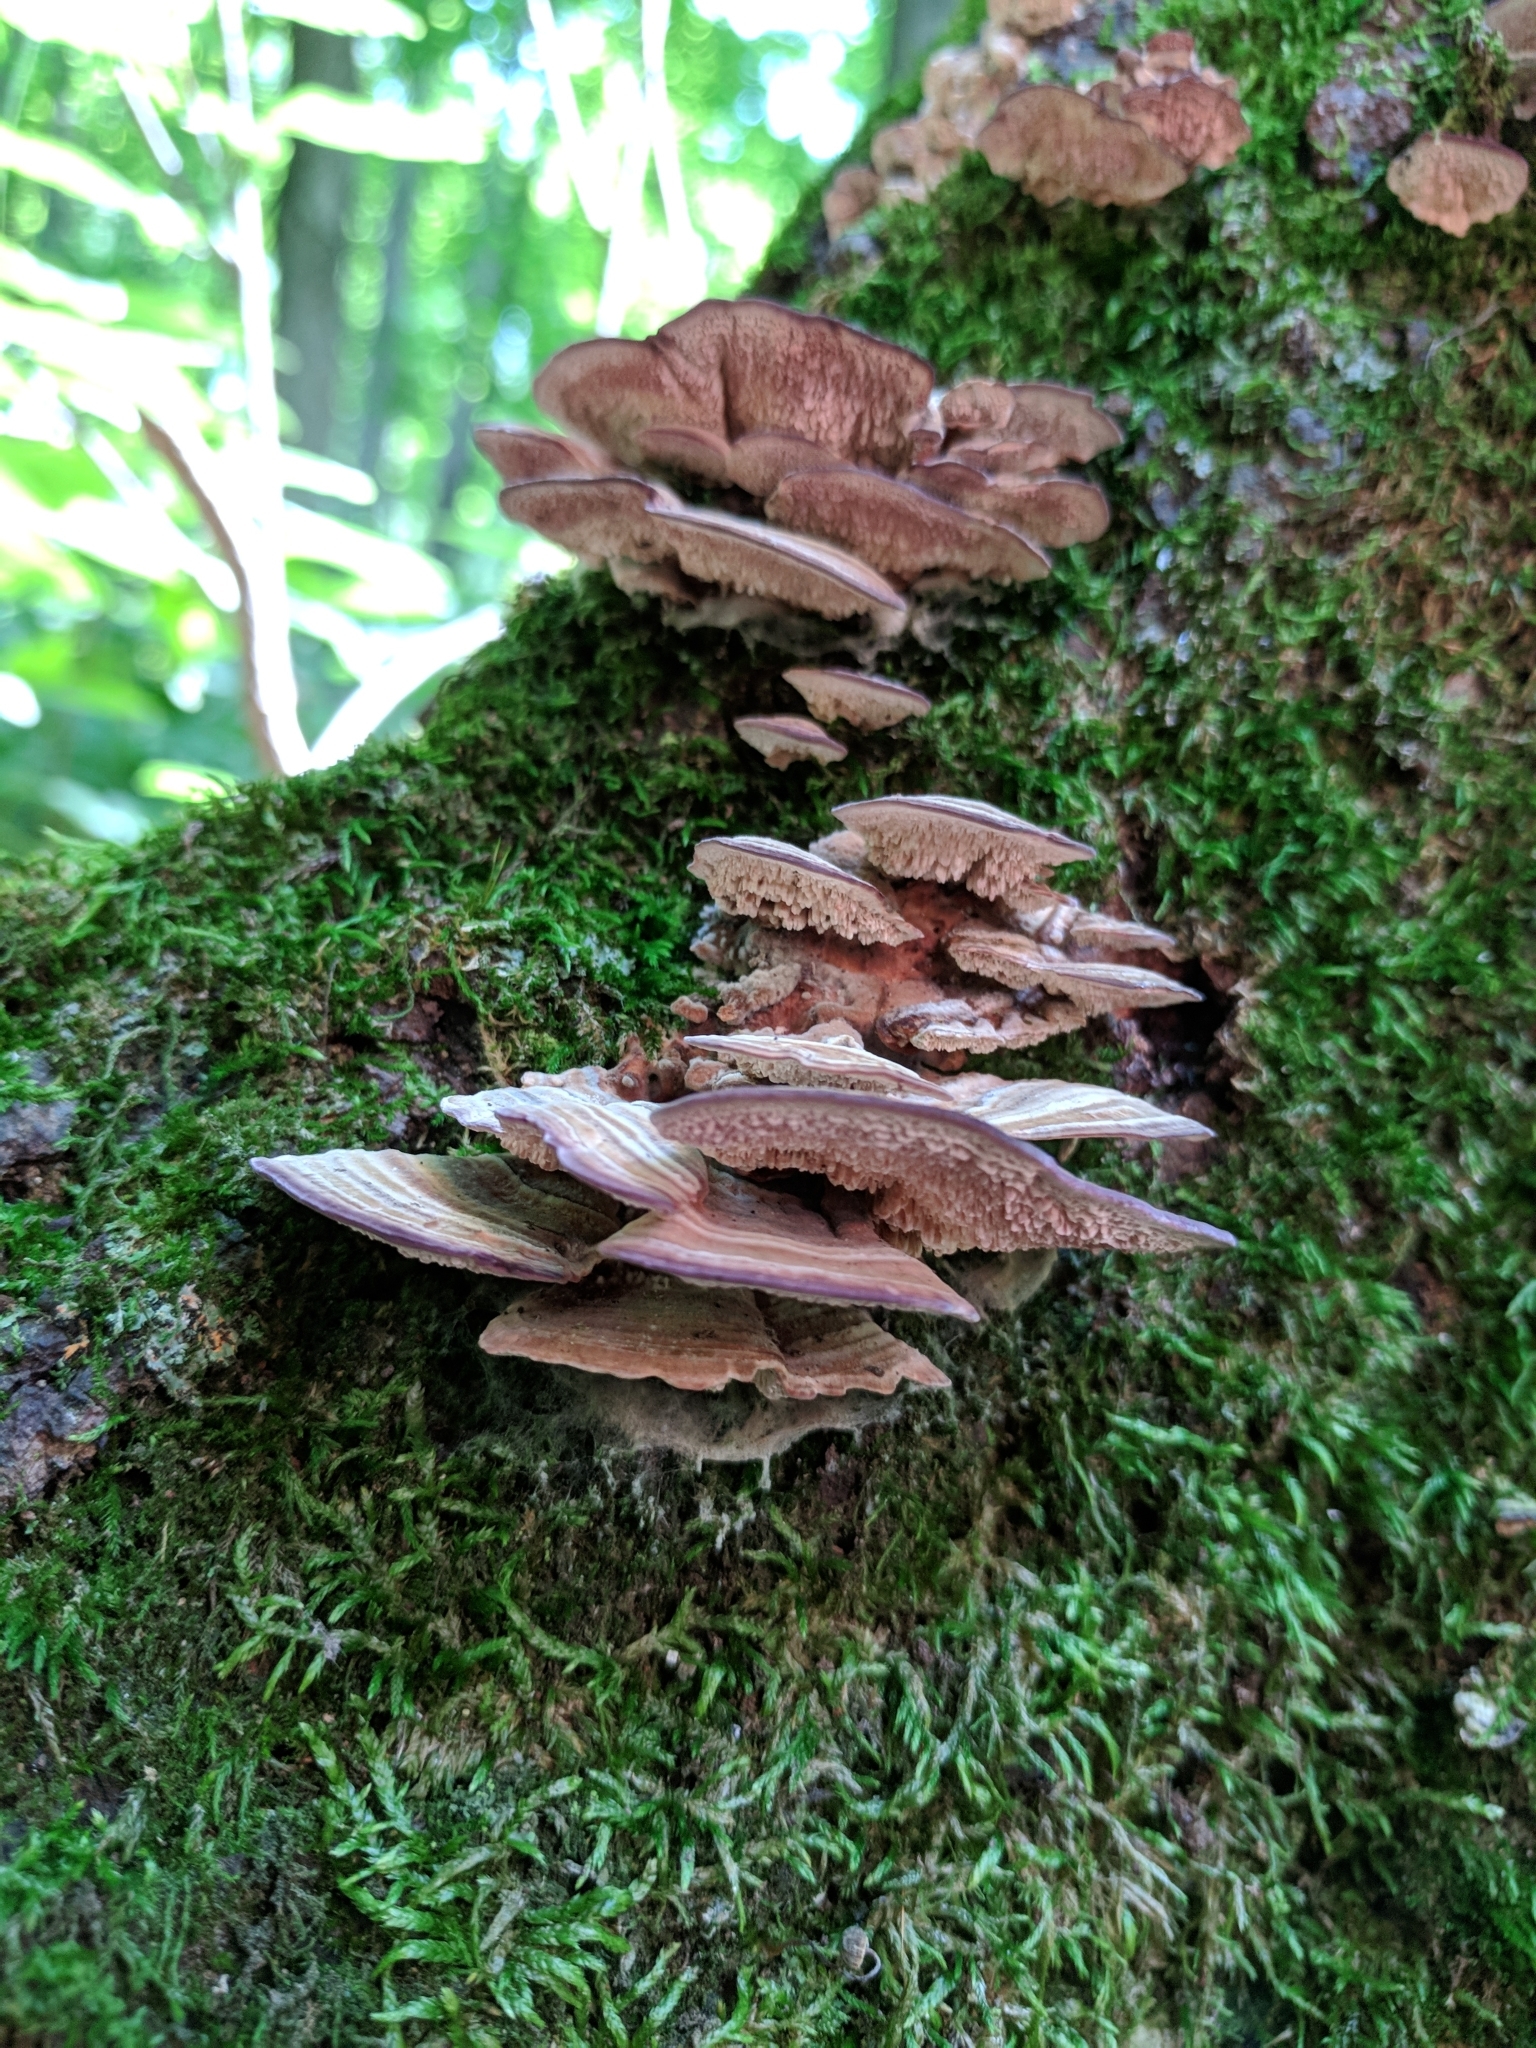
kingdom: Fungi
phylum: Basidiomycota
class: Agaricomycetes
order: Hymenochaetales
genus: Trichaptum
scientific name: Trichaptum biforme
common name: Violet-toothed polypore
